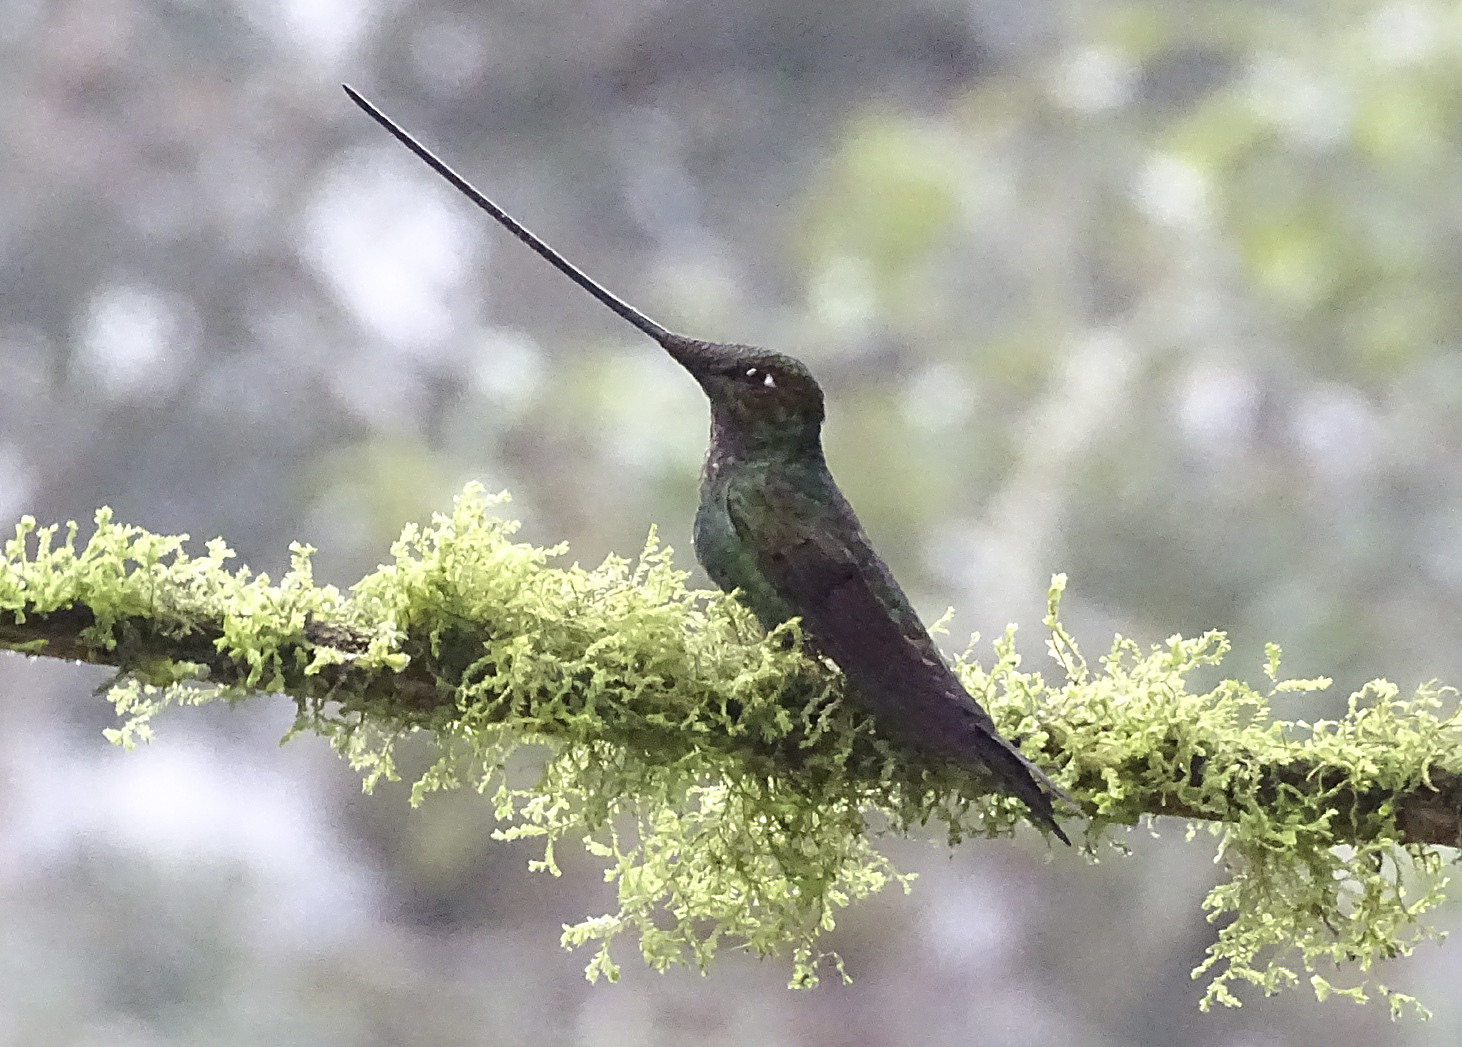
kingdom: Animalia
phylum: Chordata
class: Aves
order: Apodiformes
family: Trochilidae
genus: Ensifera
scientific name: Ensifera ensifera
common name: Sword-billed hummingbird
